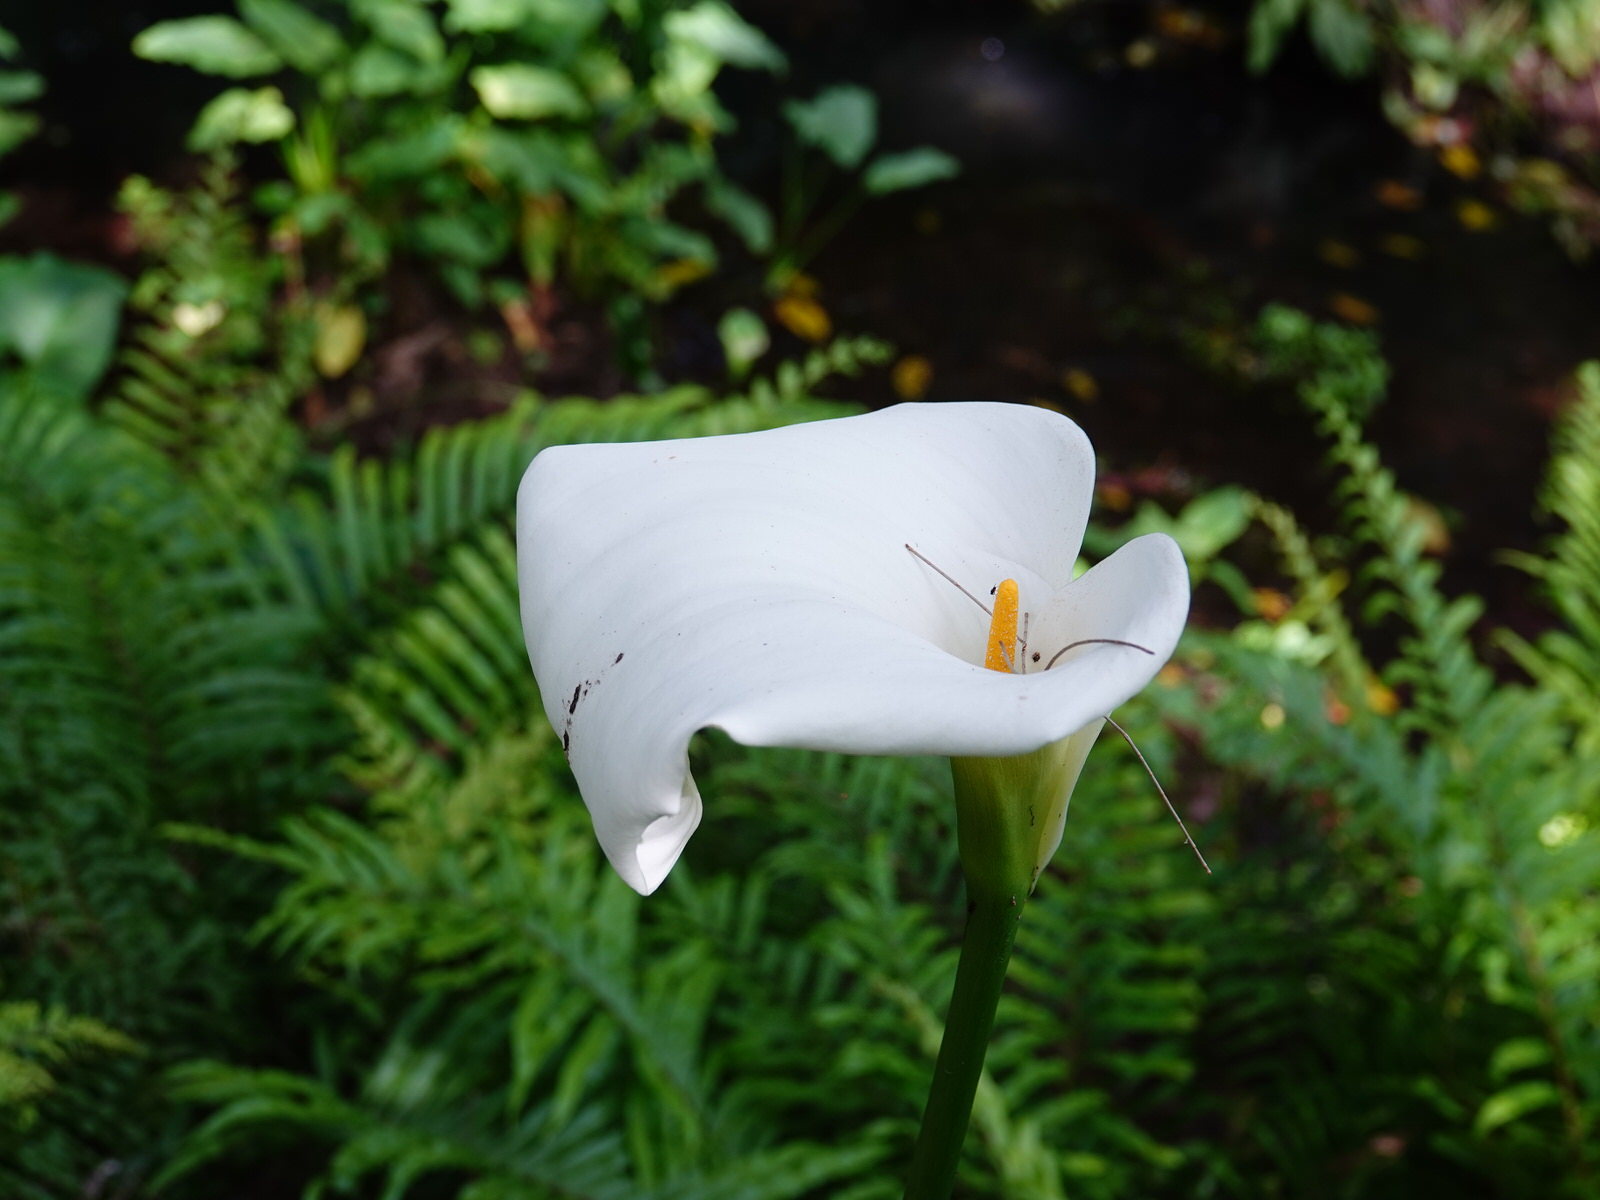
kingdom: Plantae
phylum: Tracheophyta
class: Liliopsida
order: Alismatales
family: Araceae
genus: Zantedeschia
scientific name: Zantedeschia aethiopica
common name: Altar-lily
